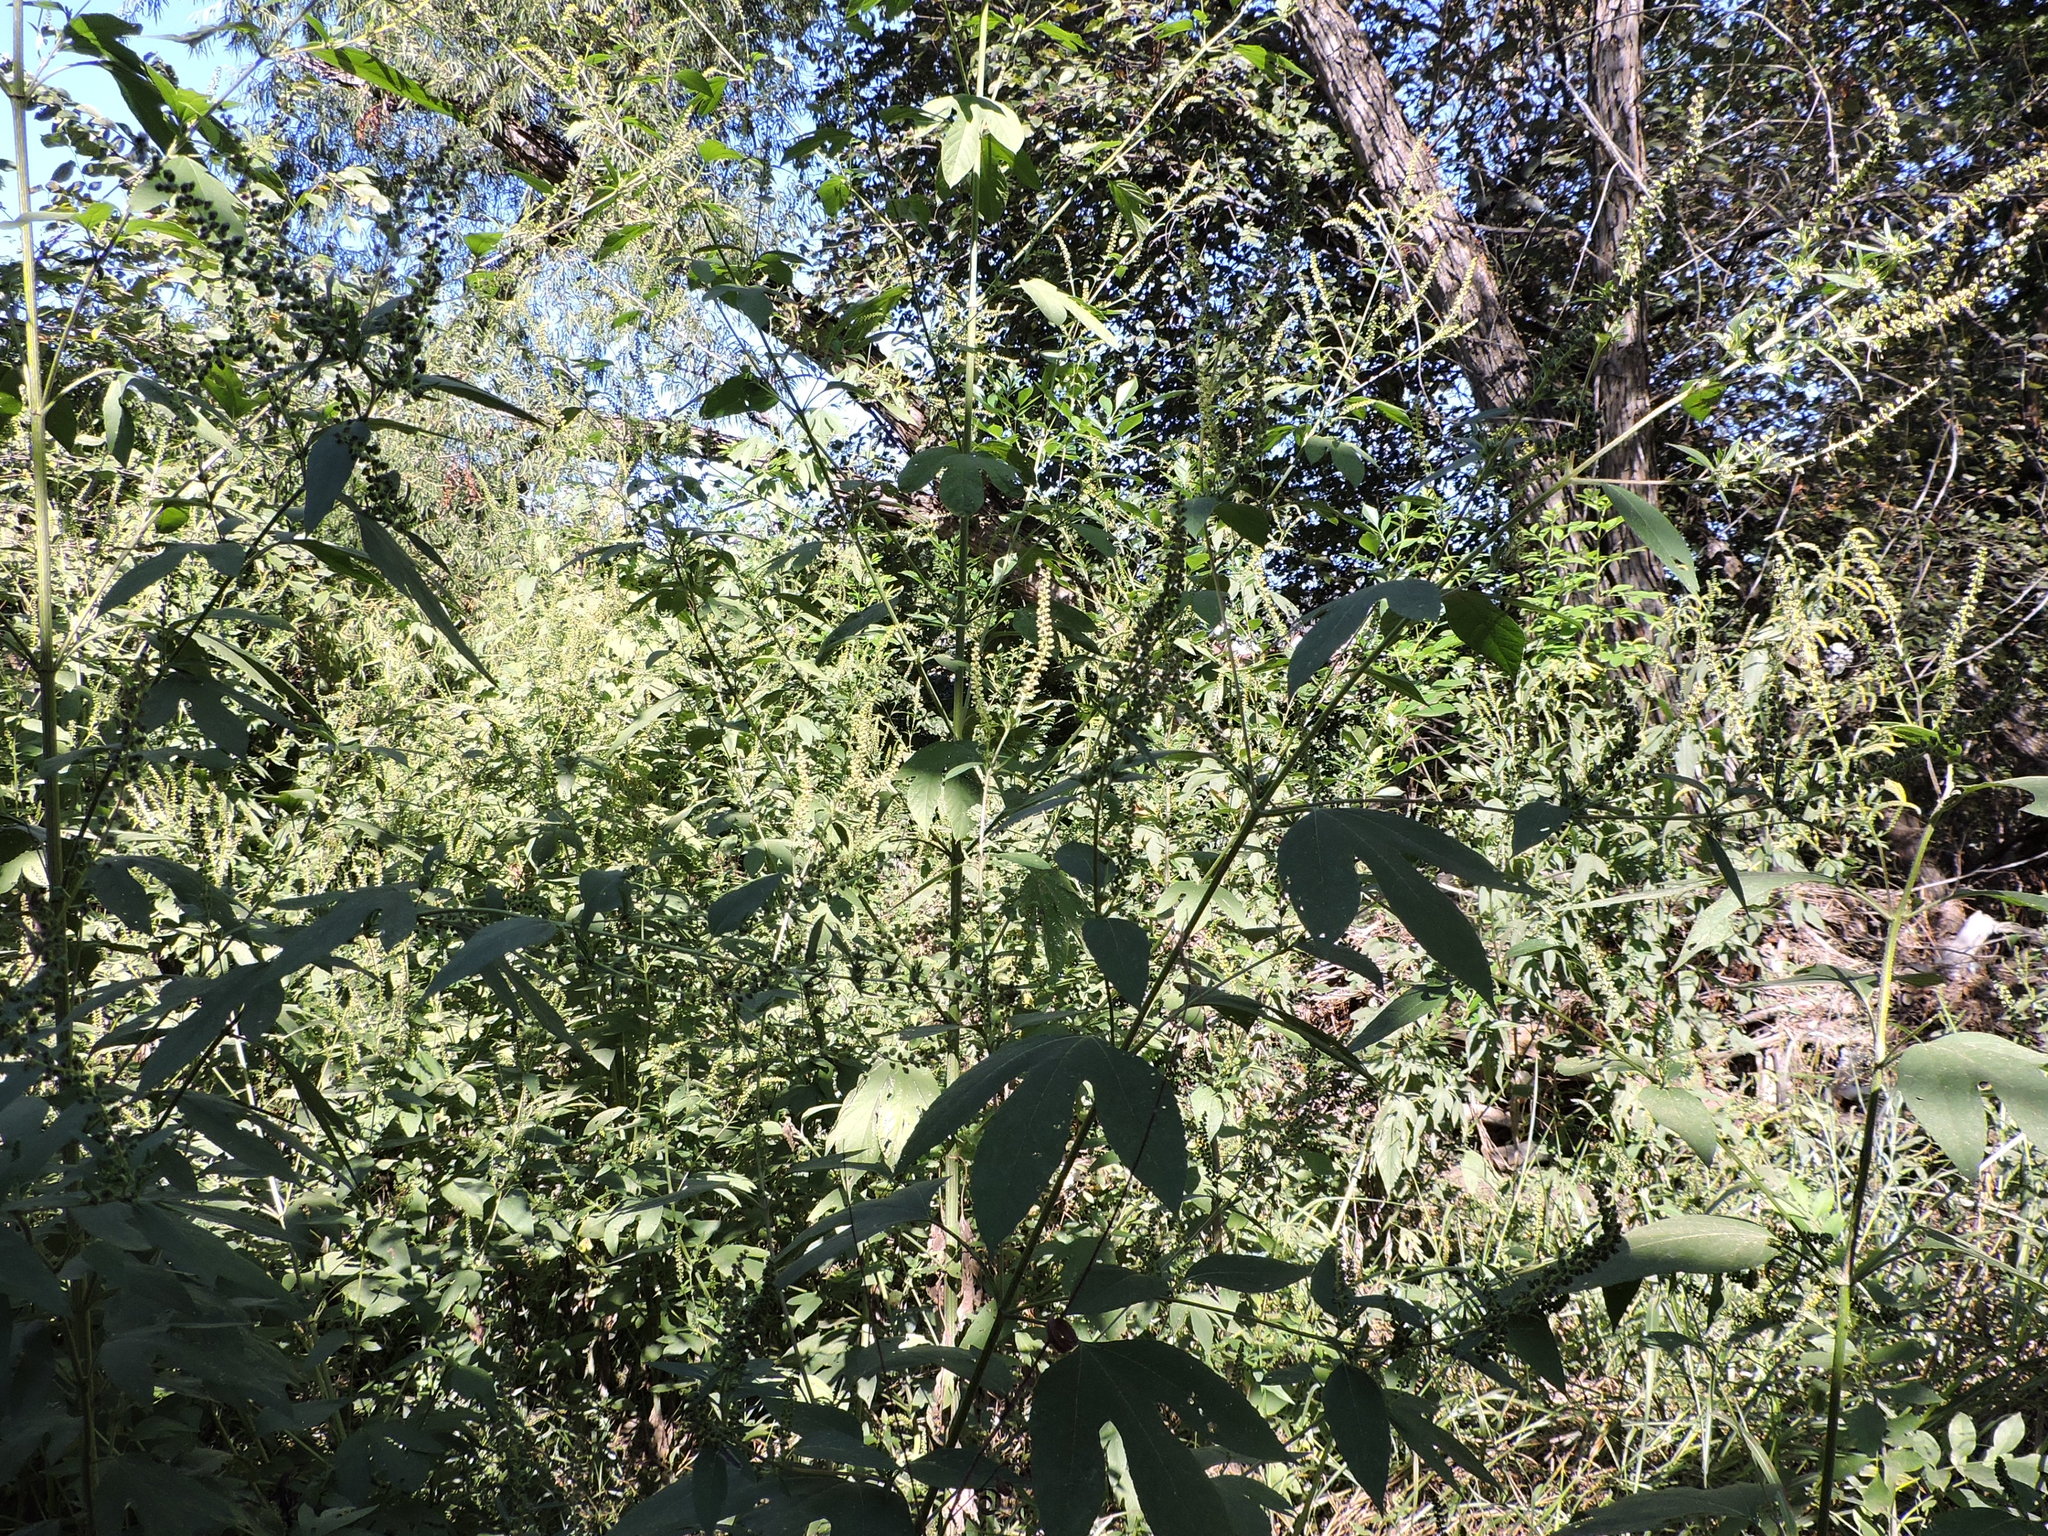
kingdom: Plantae
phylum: Tracheophyta
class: Magnoliopsida
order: Asterales
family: Asteraceae
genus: Ambrosia
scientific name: Ambrosia trifida
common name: Giant ragweed
